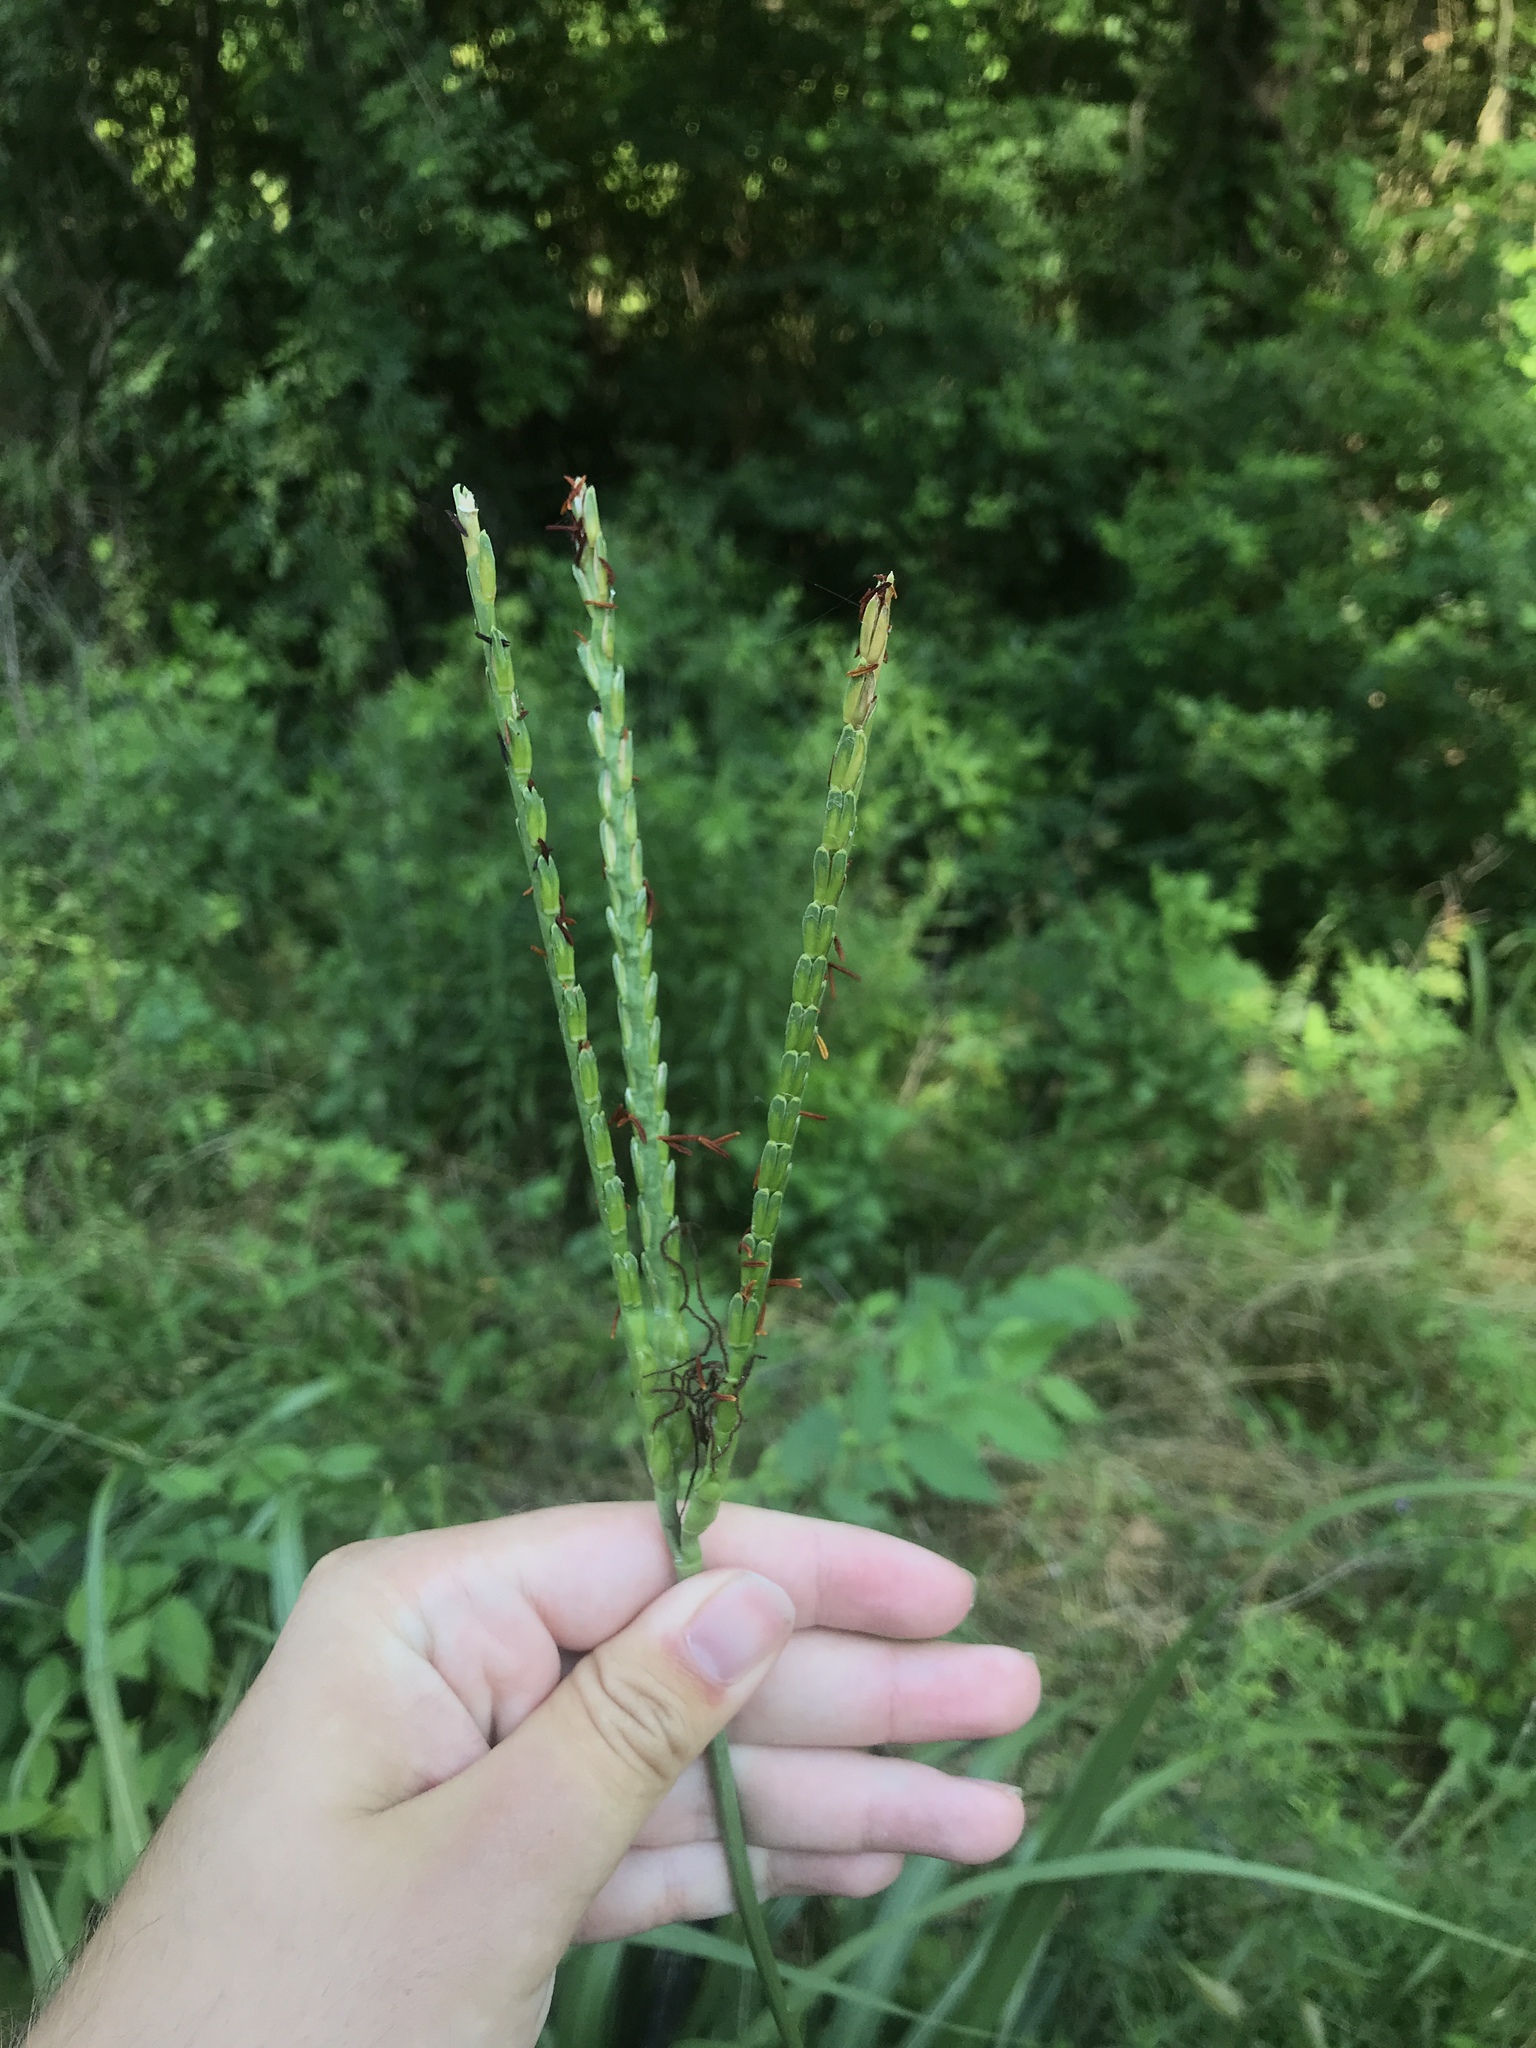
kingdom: Plantae
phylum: Tracheophyta
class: Liliopsida
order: Poales
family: Poaceae
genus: Tripsacum
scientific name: Tripsacum dactyloides
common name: Buffalo-grass
